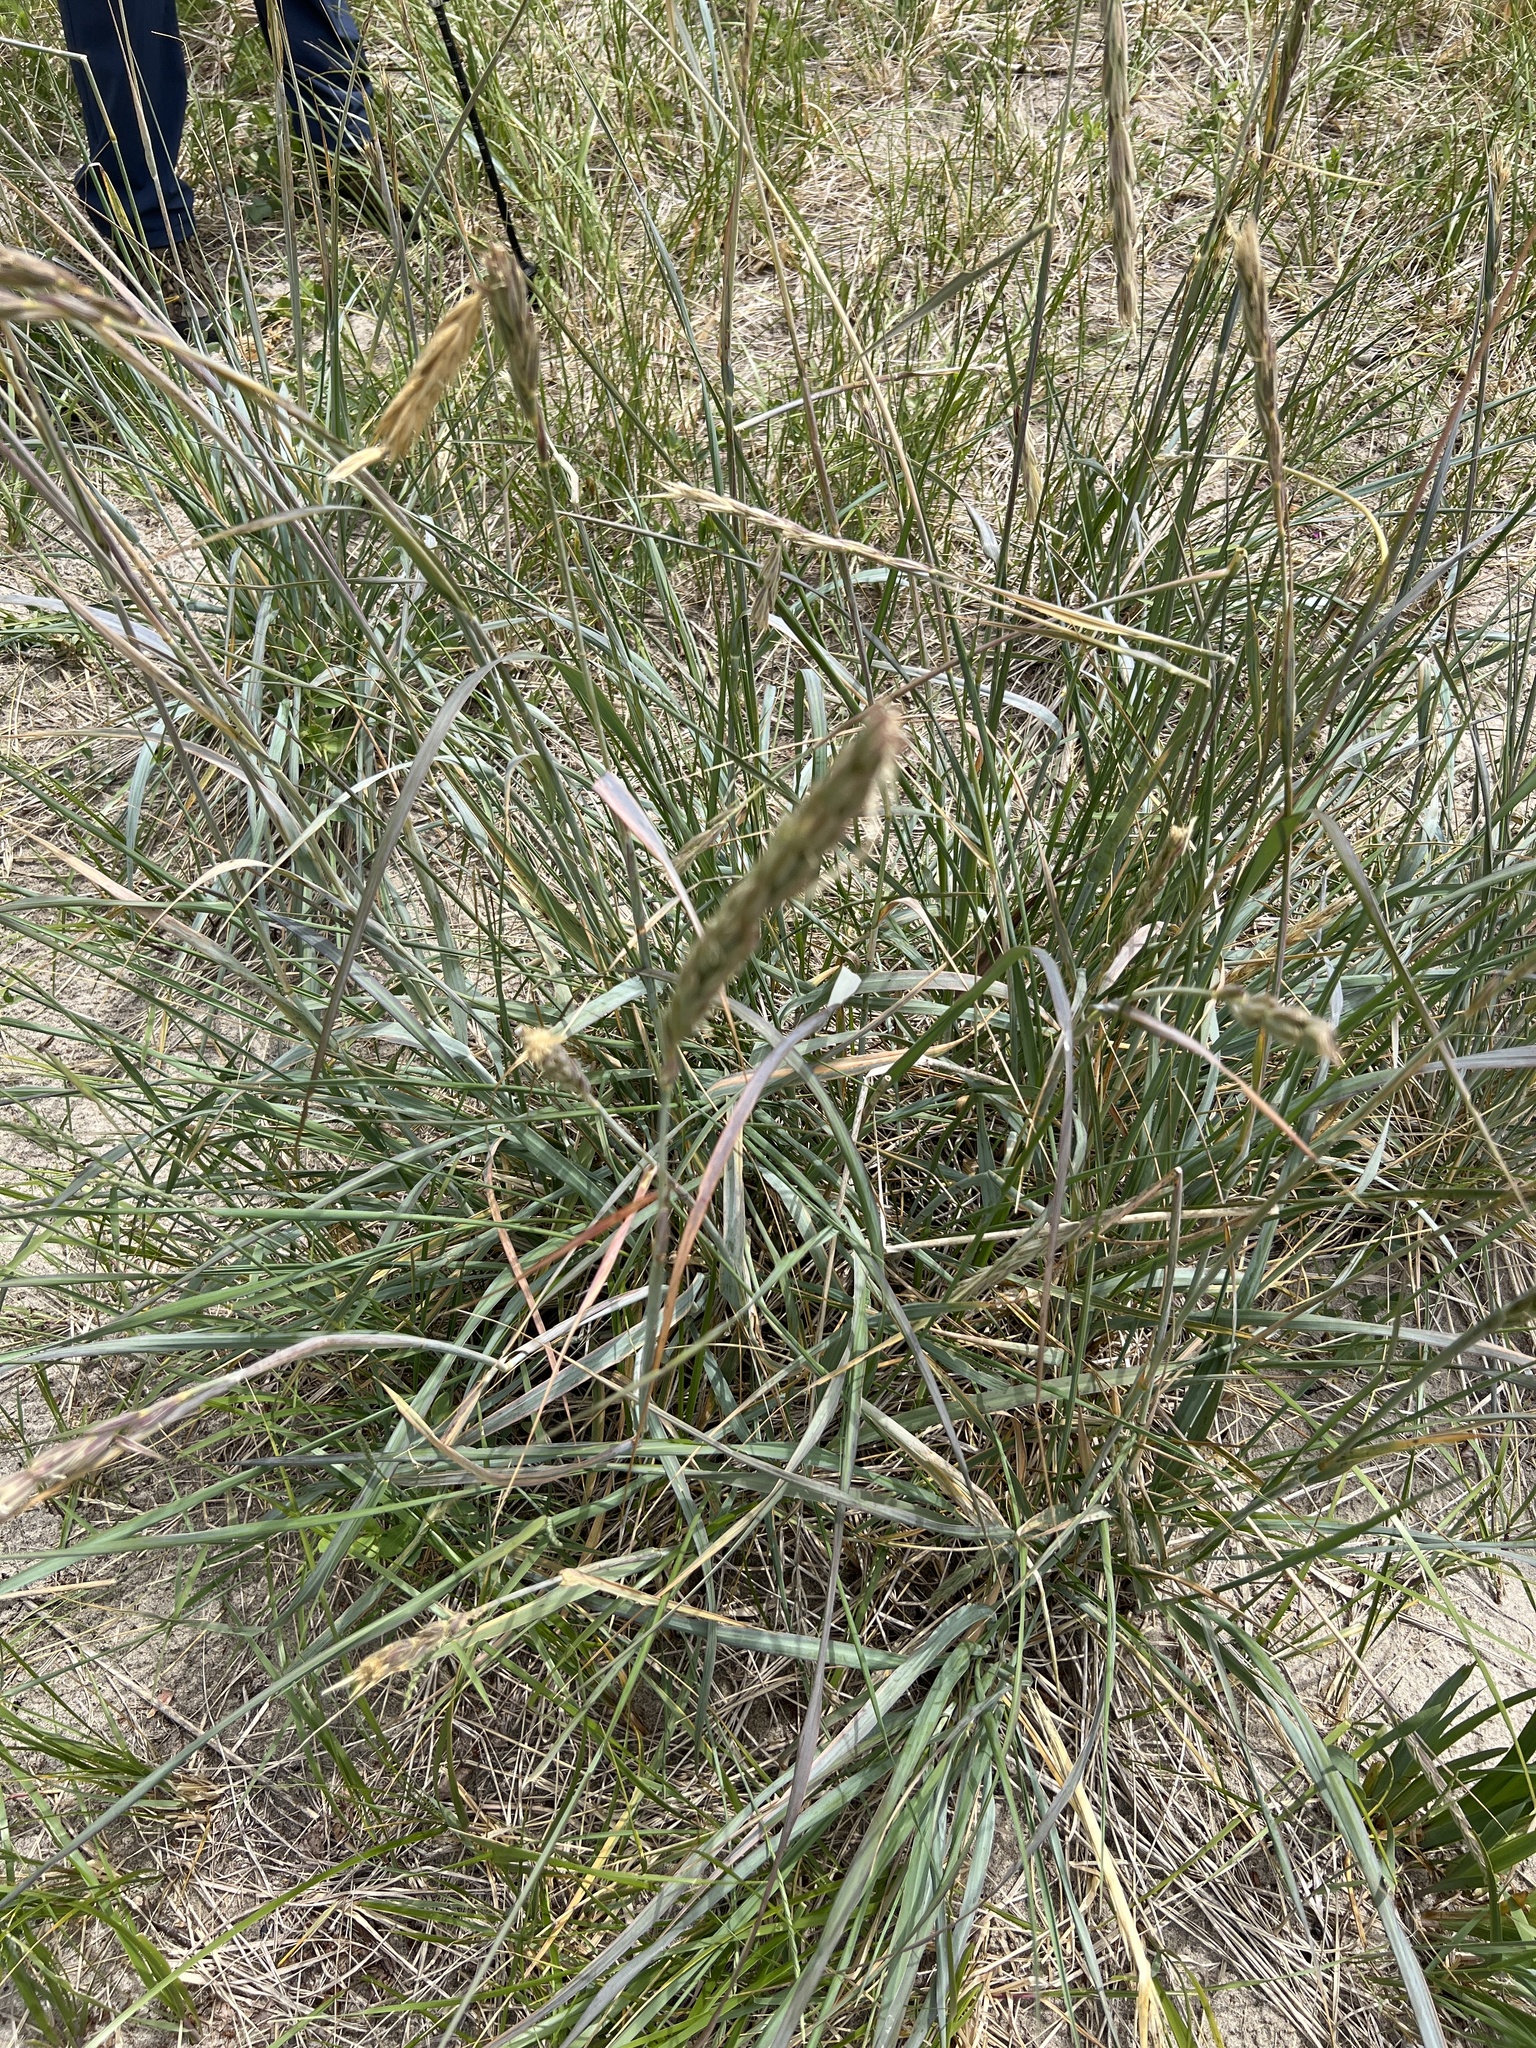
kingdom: Plantae
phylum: Tracheophyta
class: Liliopsida
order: Poales
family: Poaceae
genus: Leymus
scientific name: Leymus mollis
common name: American dune grass
